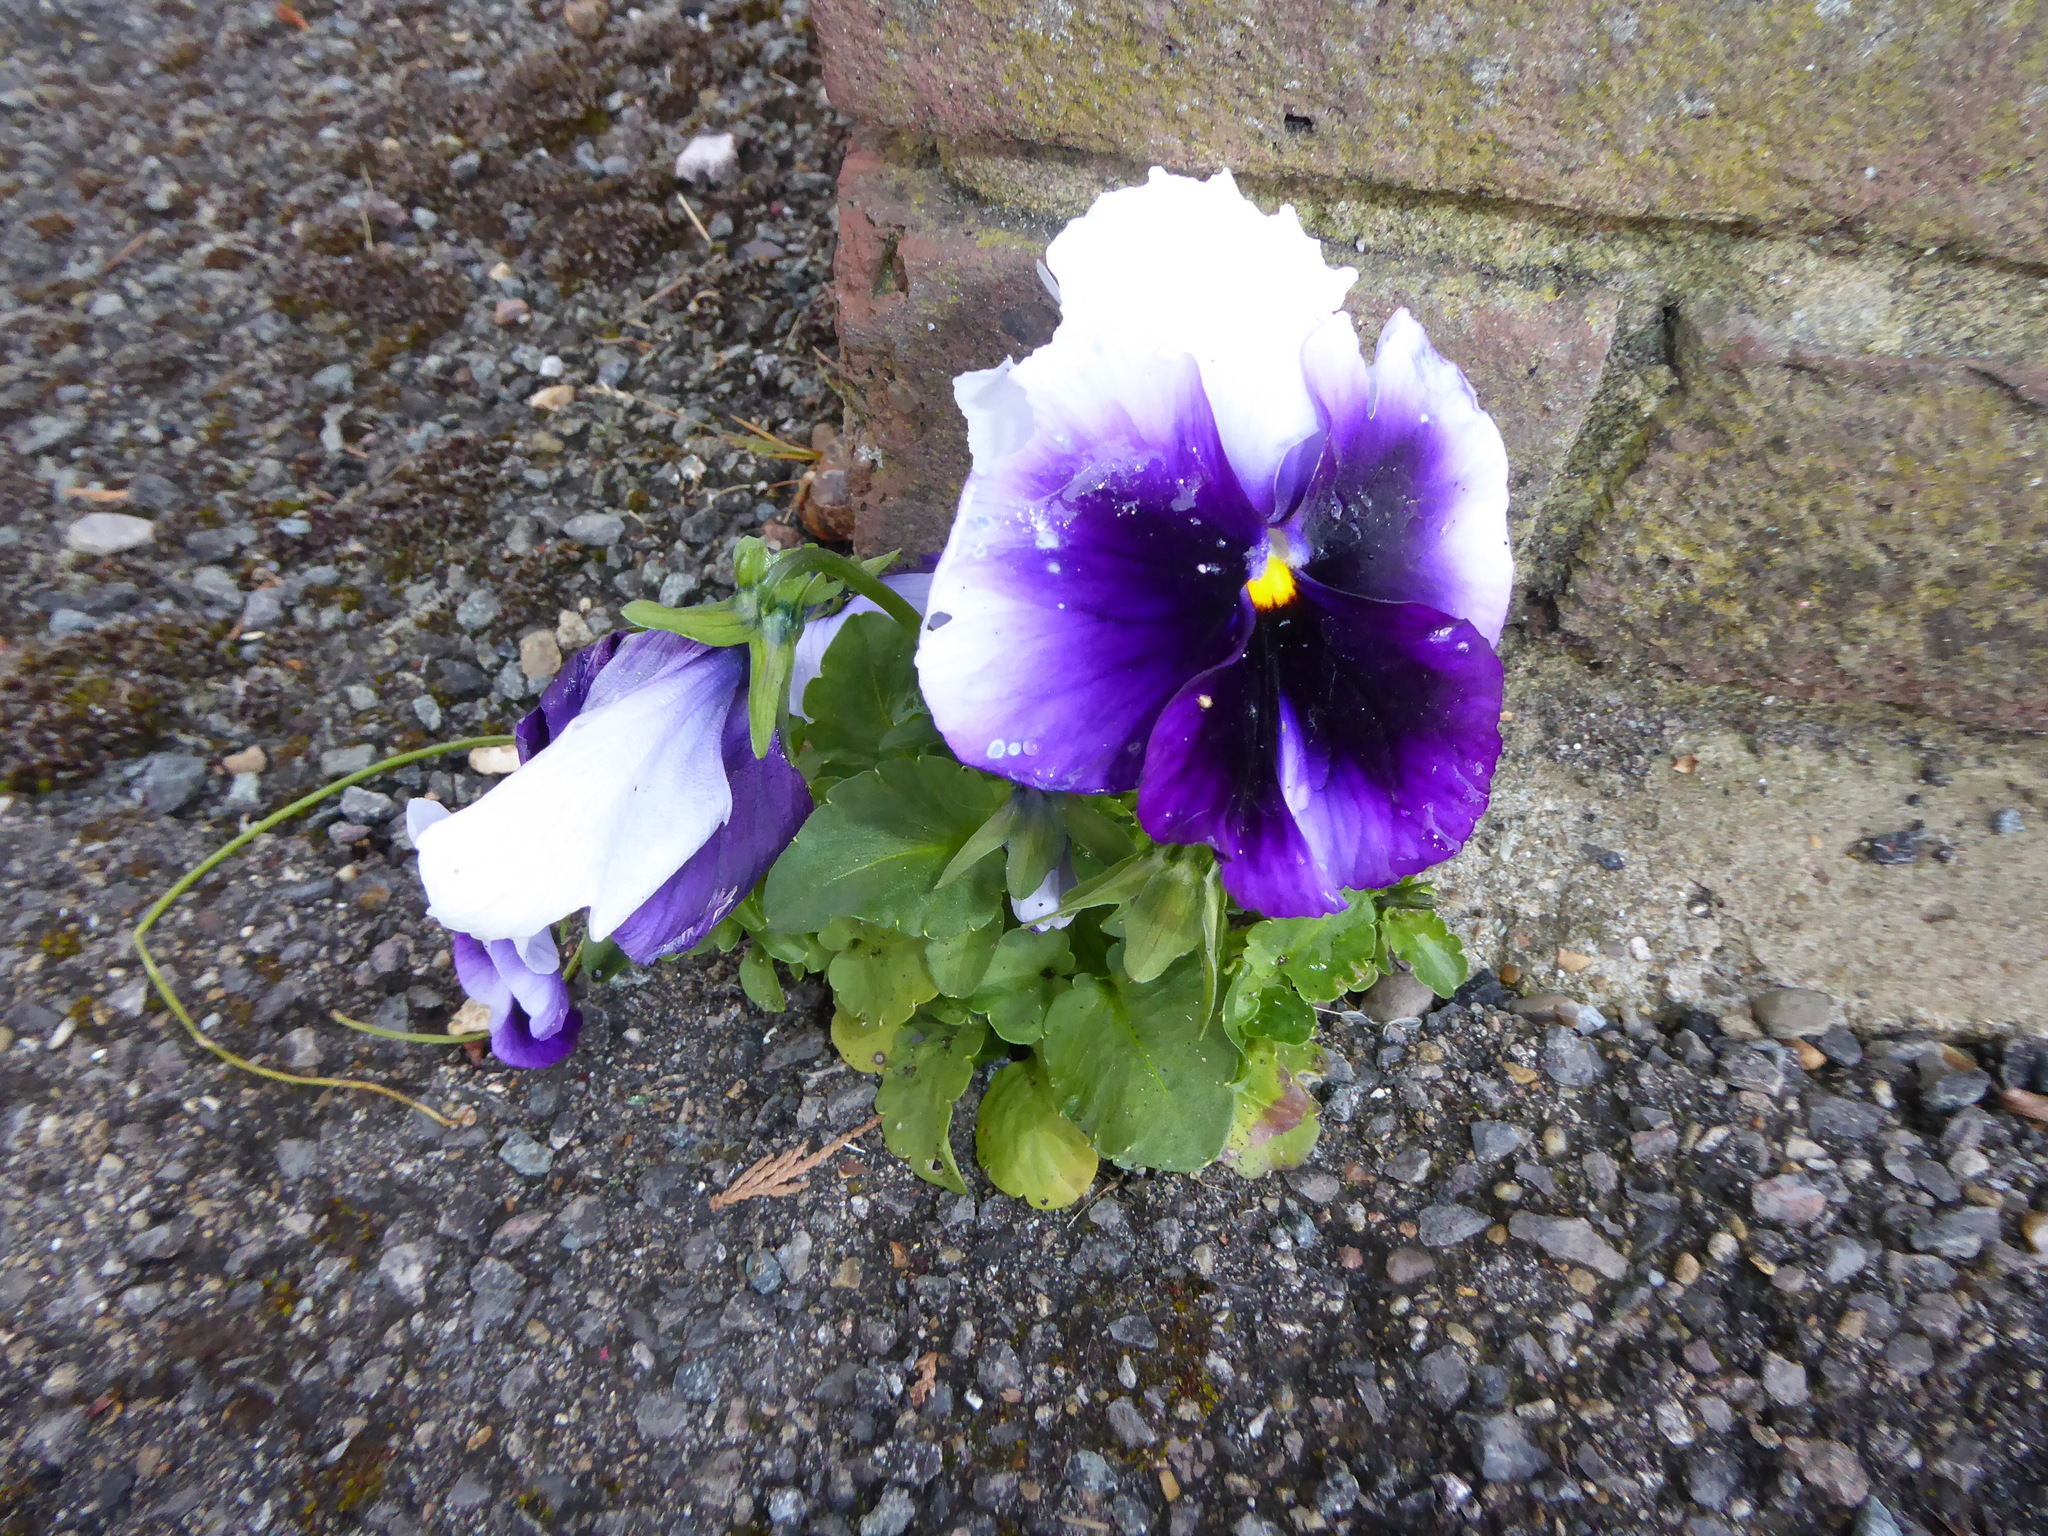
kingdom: Plantae
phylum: Tracheophyta
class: Magnoliopsida
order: Malpighiales
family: Violaceae
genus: Viola
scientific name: Viola wittrockiana
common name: Garden pansy
